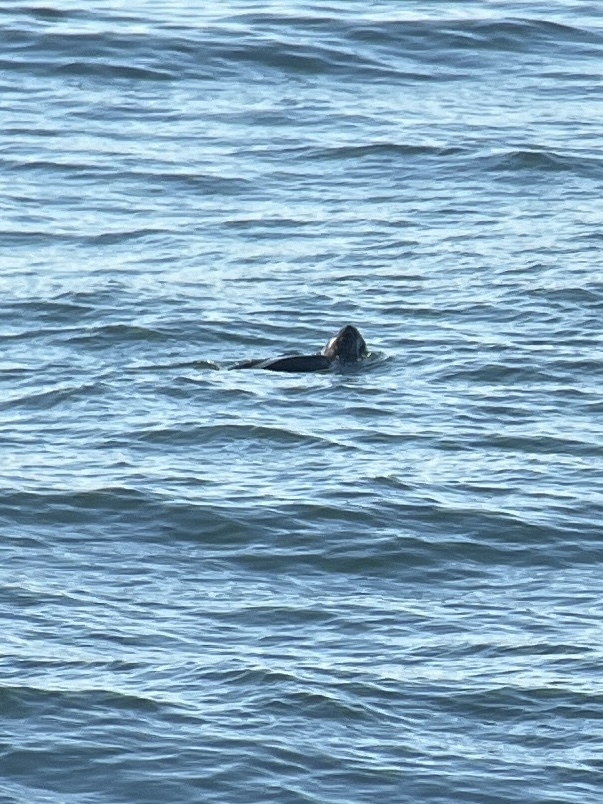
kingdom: Animalia
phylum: Chordata
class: Testudines
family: Dermochelyidae
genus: Dermochelys
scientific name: Dermochelys coriacea
